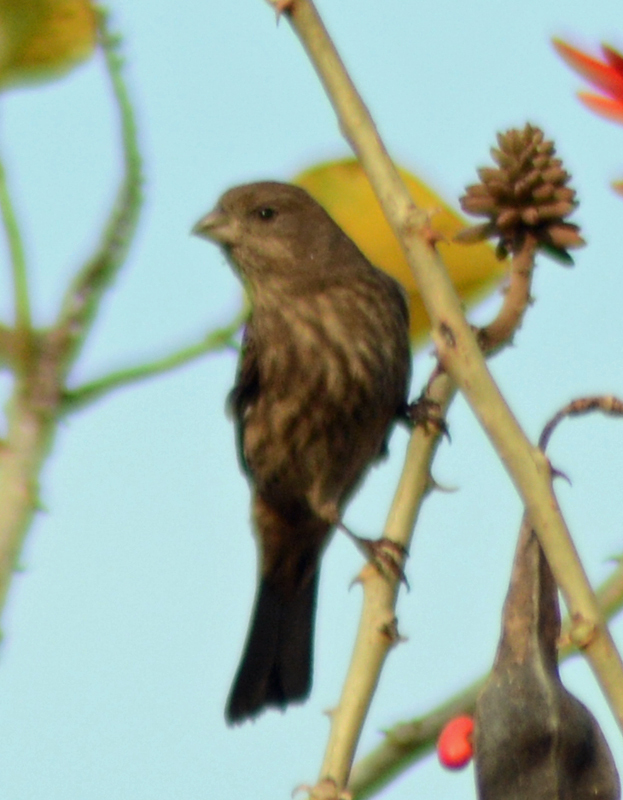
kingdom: Animalia
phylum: Chordata
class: Aves
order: Passeriformes
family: Fringillidae
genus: Haemorhous
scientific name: Haemorhous mexicanus
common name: House finch
